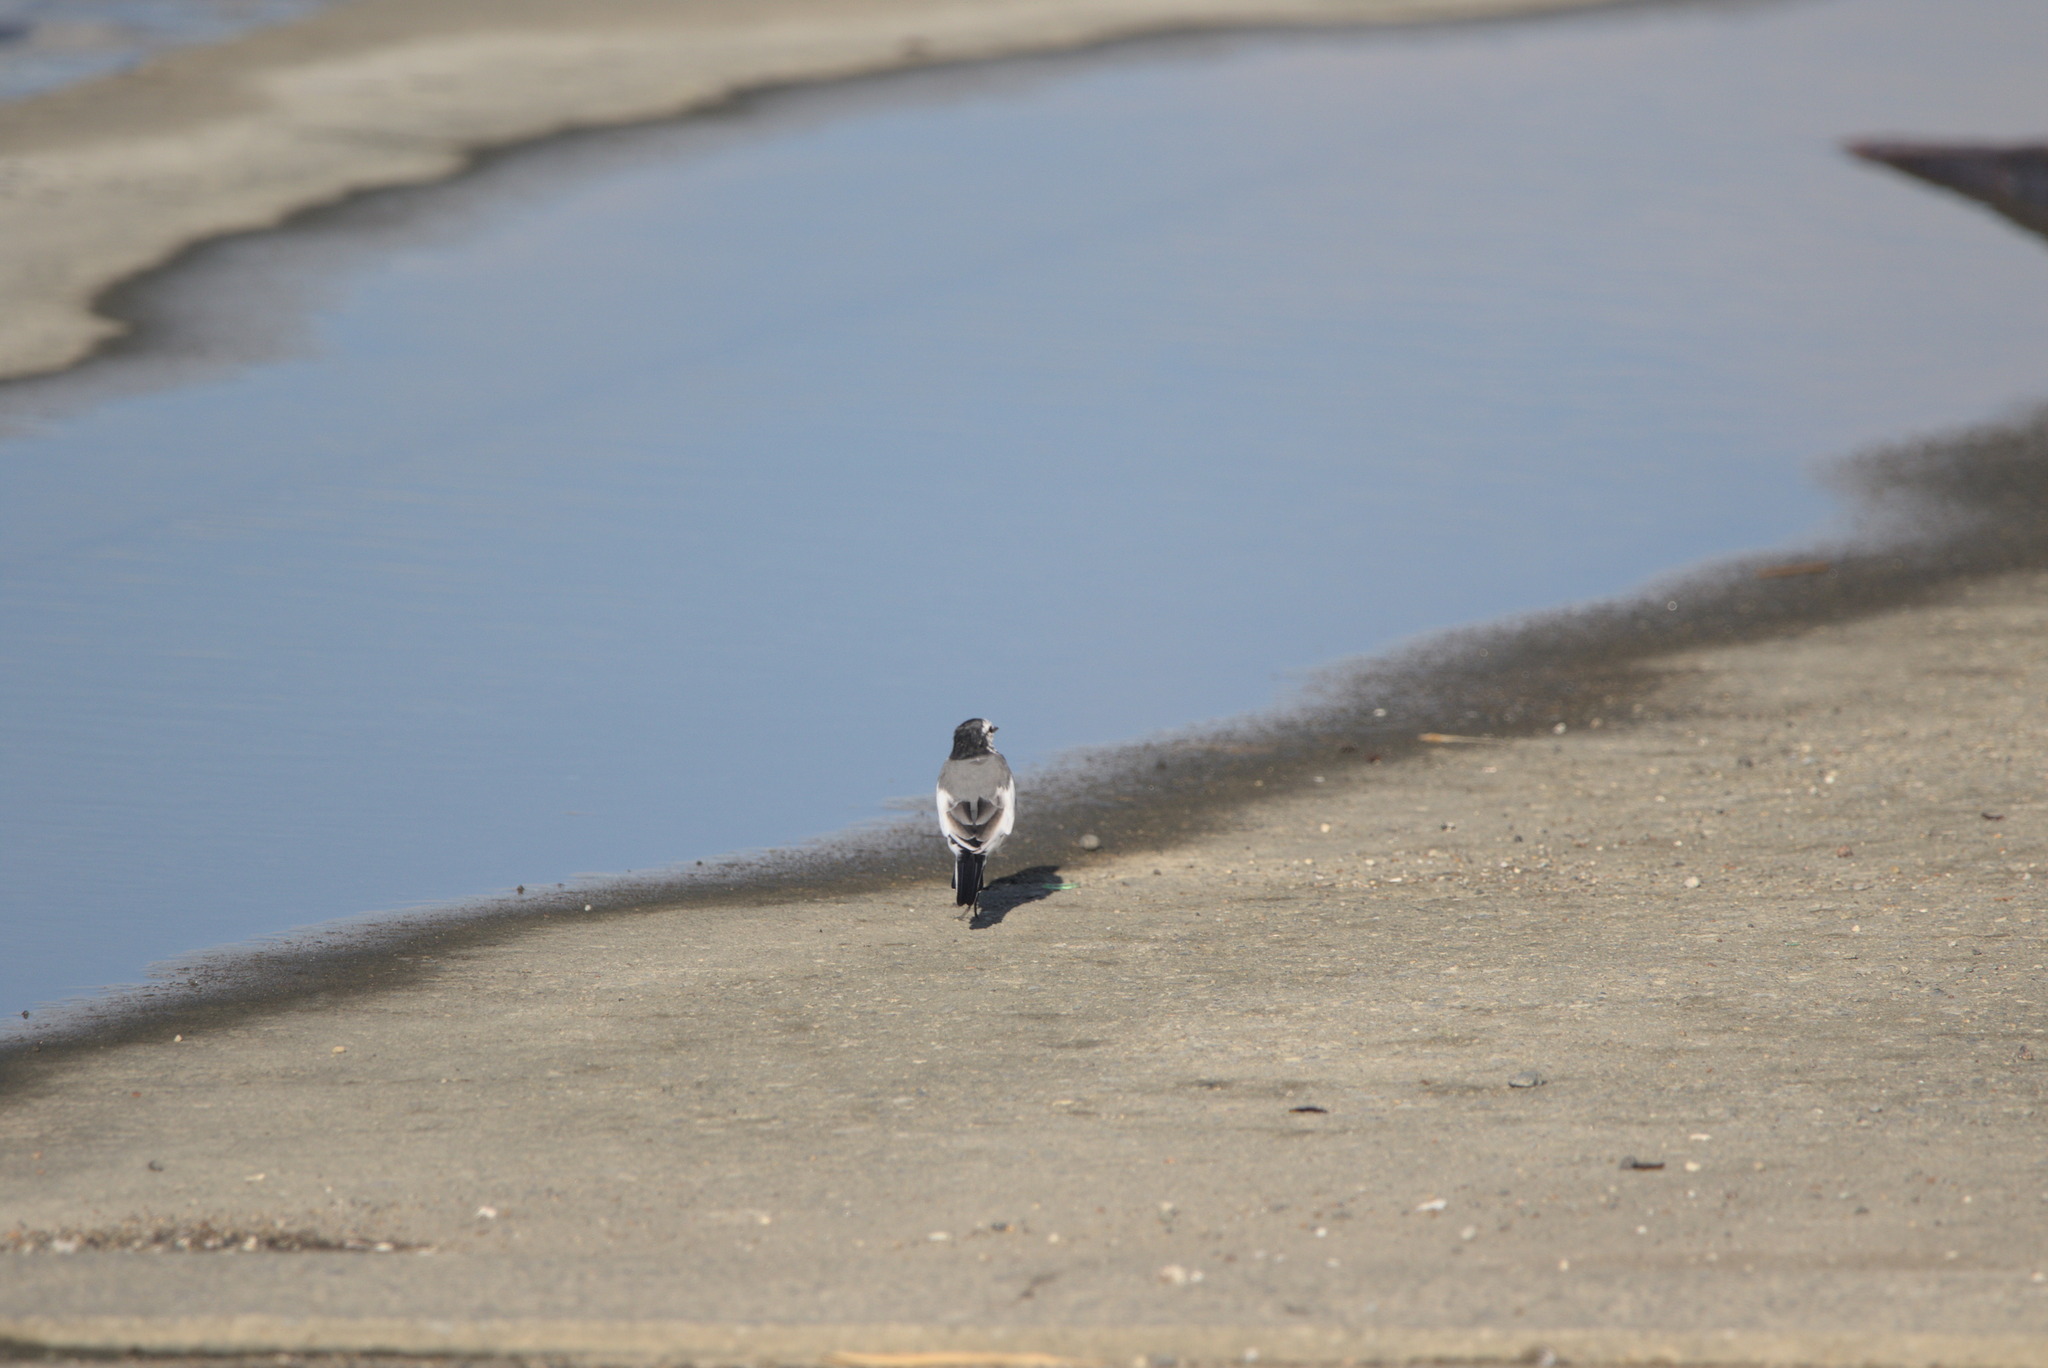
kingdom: Animalia
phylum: Chordata
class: Aves
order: Passeriformes
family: Motacillidae
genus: Motacilla
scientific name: Motacilla alba
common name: White wagtail
